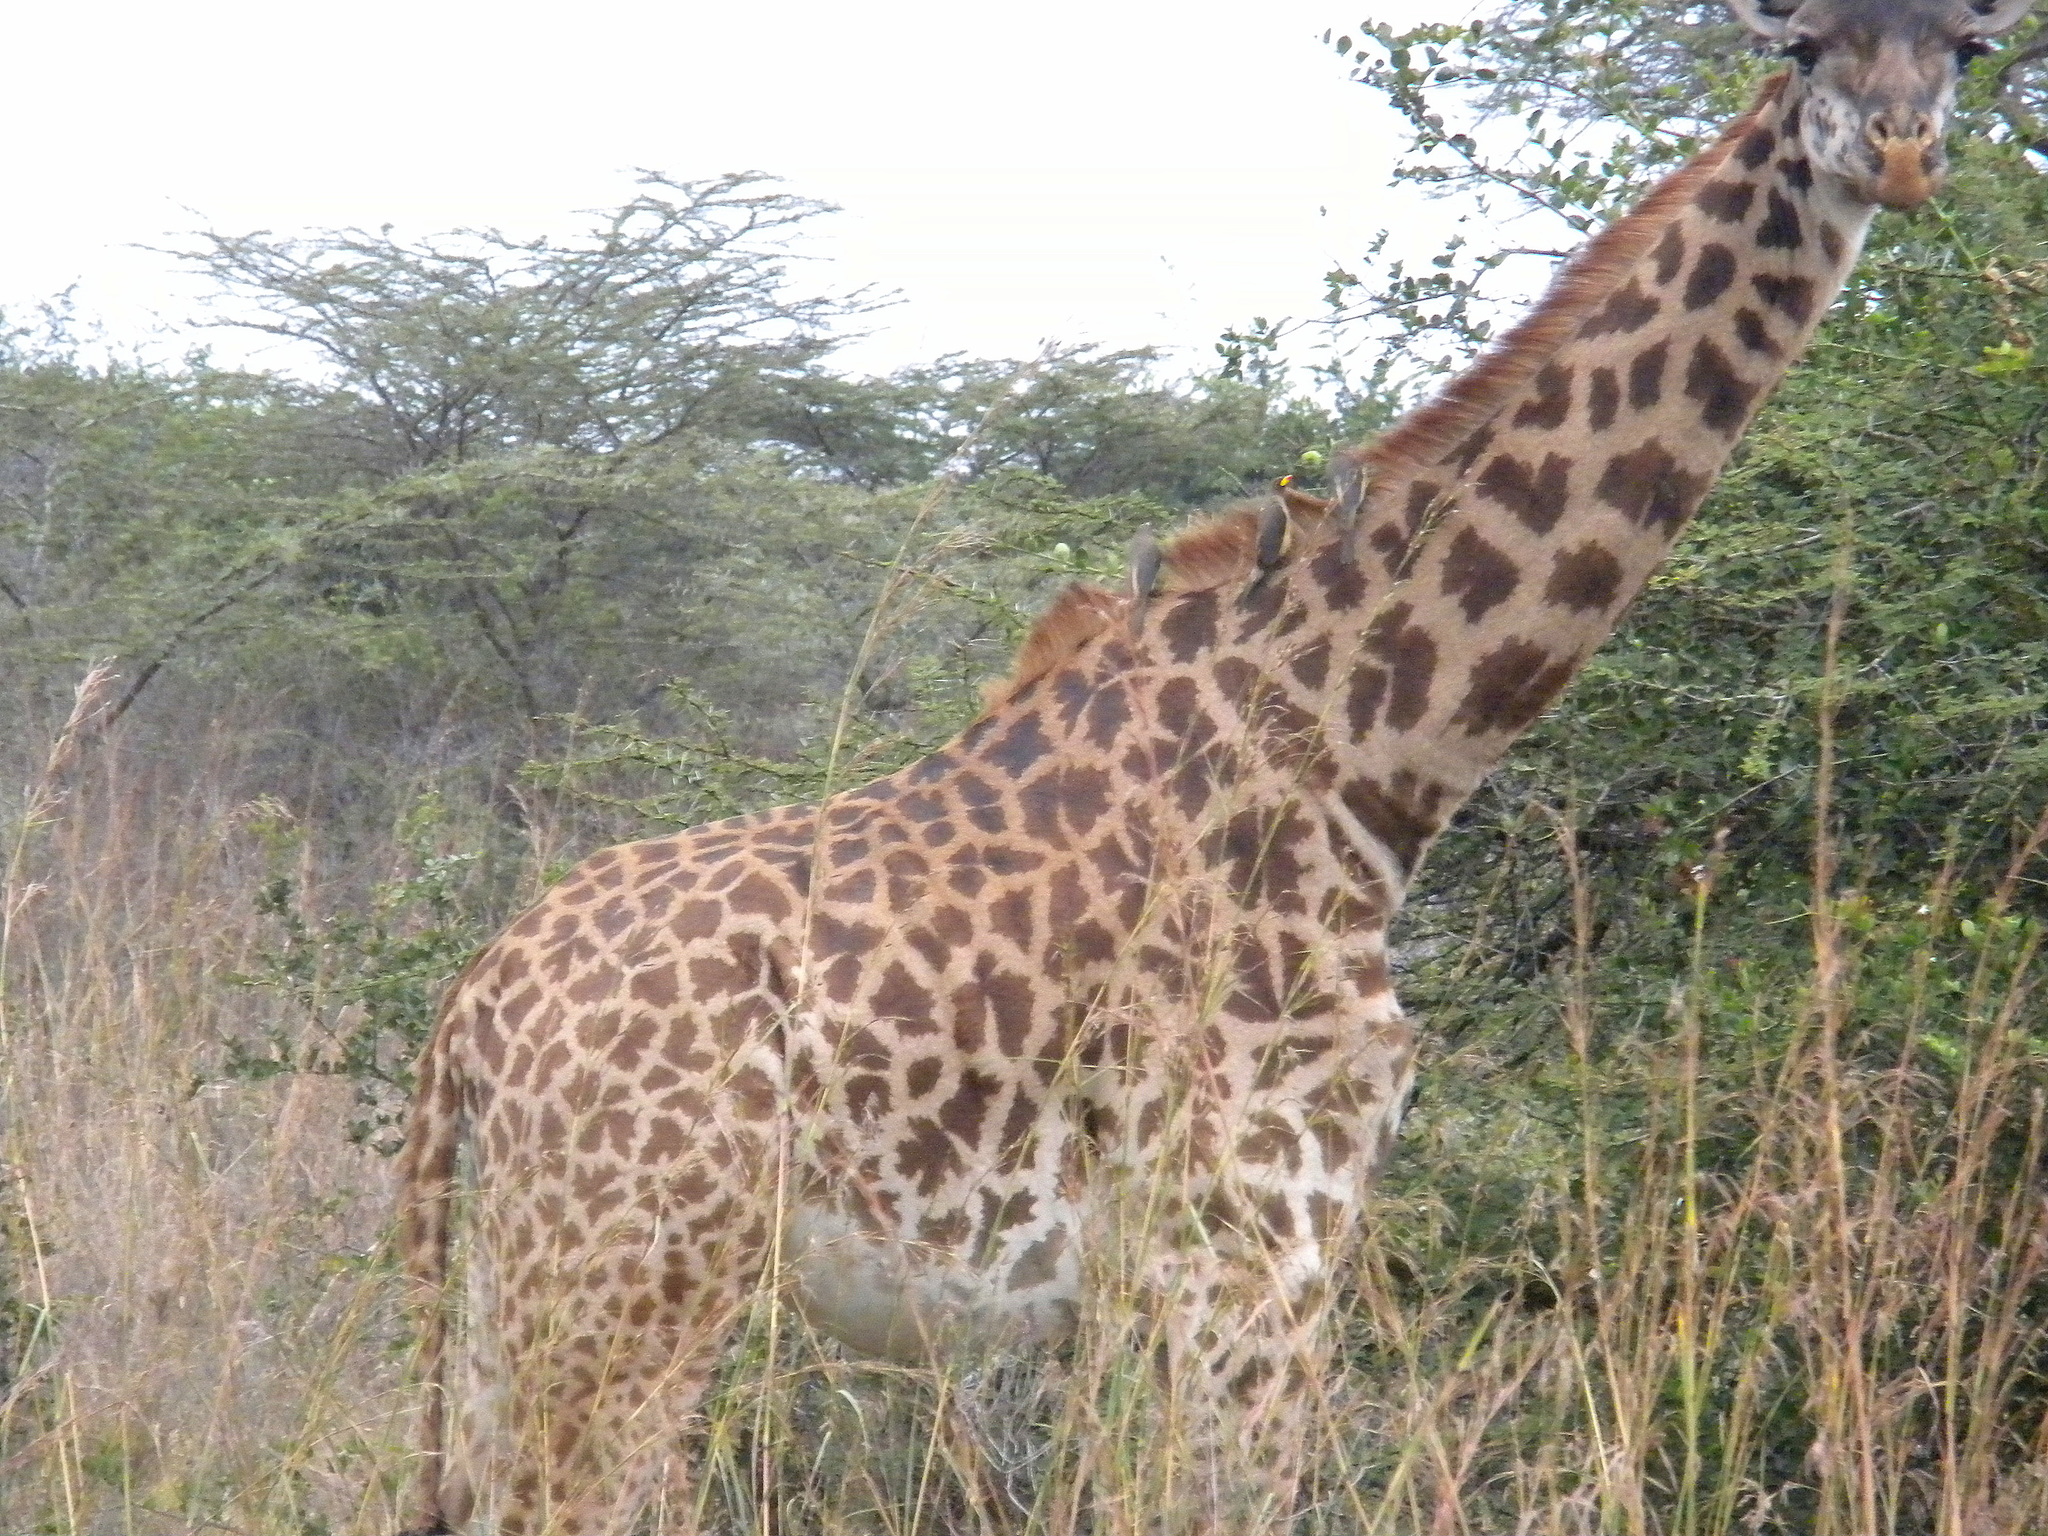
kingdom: Animalia
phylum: Chordata
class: Aves
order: Passeriformes
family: Buphagidae
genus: Buphagus
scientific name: Buphagus africanus
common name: Yellow-billed oxpecker
